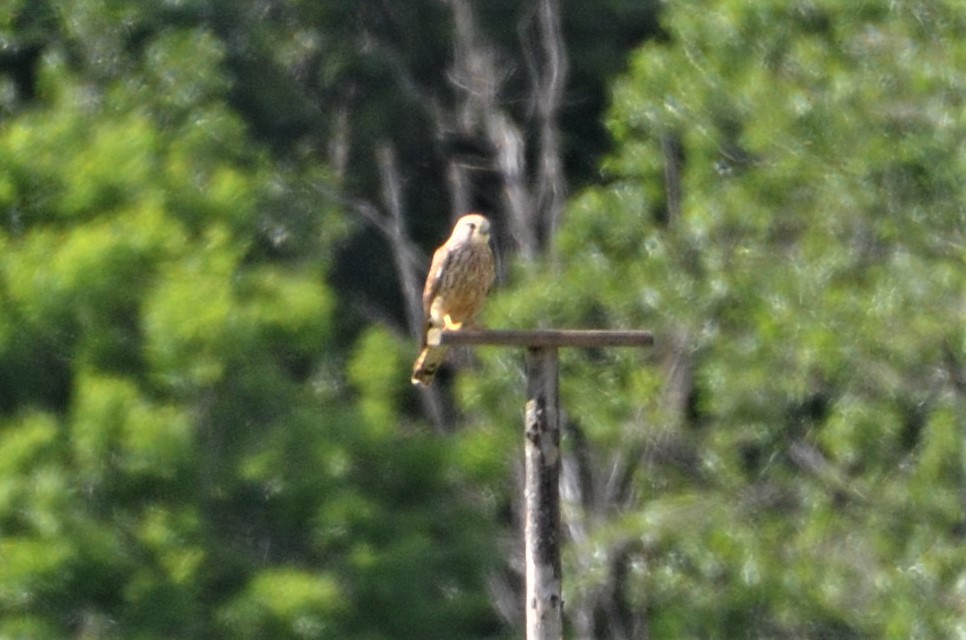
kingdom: Animalia
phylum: Chordata
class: Aves
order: Falconiformes
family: Falconidae
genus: Falco
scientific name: Falco tinnunculus
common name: Common kestrel
